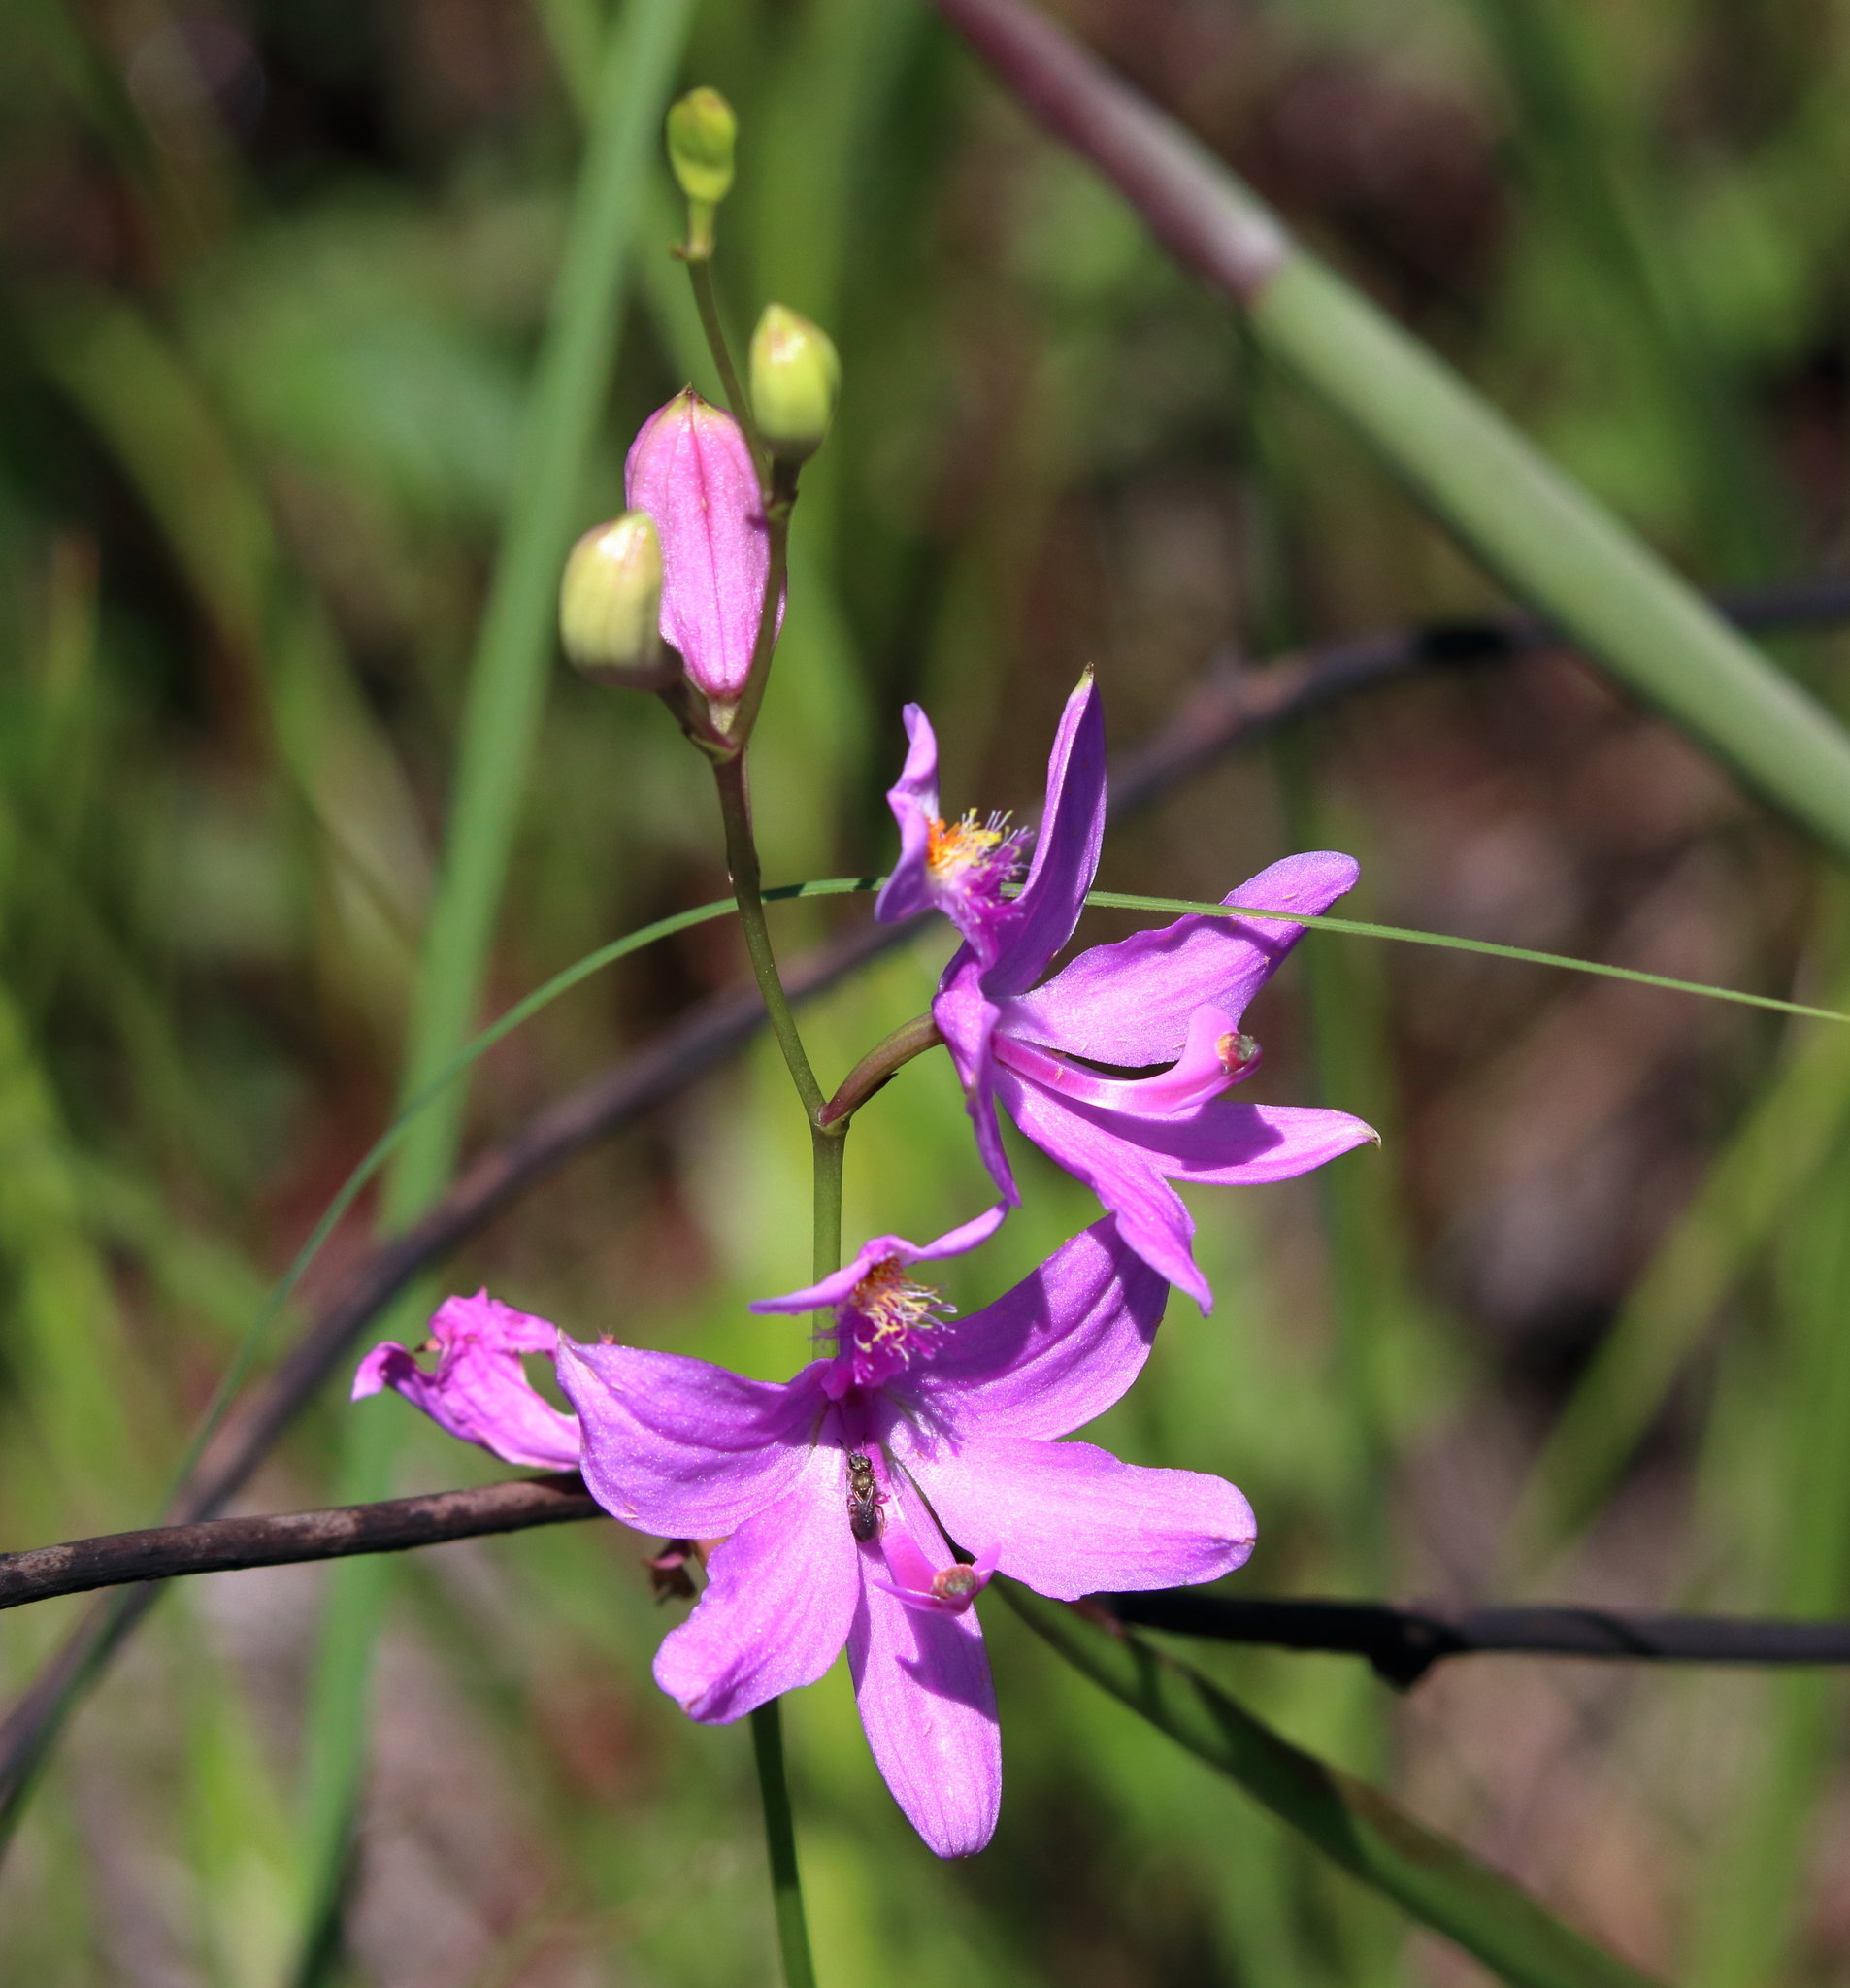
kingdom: Plantae
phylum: Tracheophyta
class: Liliopsida
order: Asparagales
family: Orchidaceae
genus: Calopogon
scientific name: Calopogon tuberosus
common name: Grass-pink
